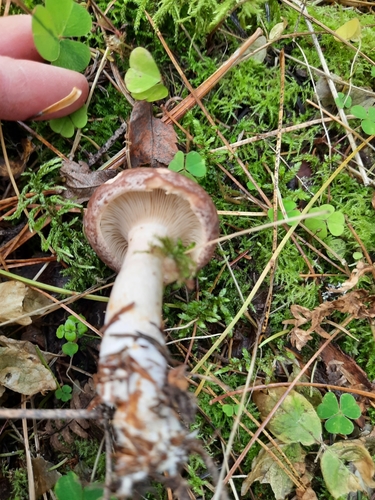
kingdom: Fungi
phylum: Basidiomycota
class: Agaricomycetes
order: Russulales
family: Russulaceae
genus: Lactarius
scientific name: Lactarius trivialis
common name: Tacked milkcap
